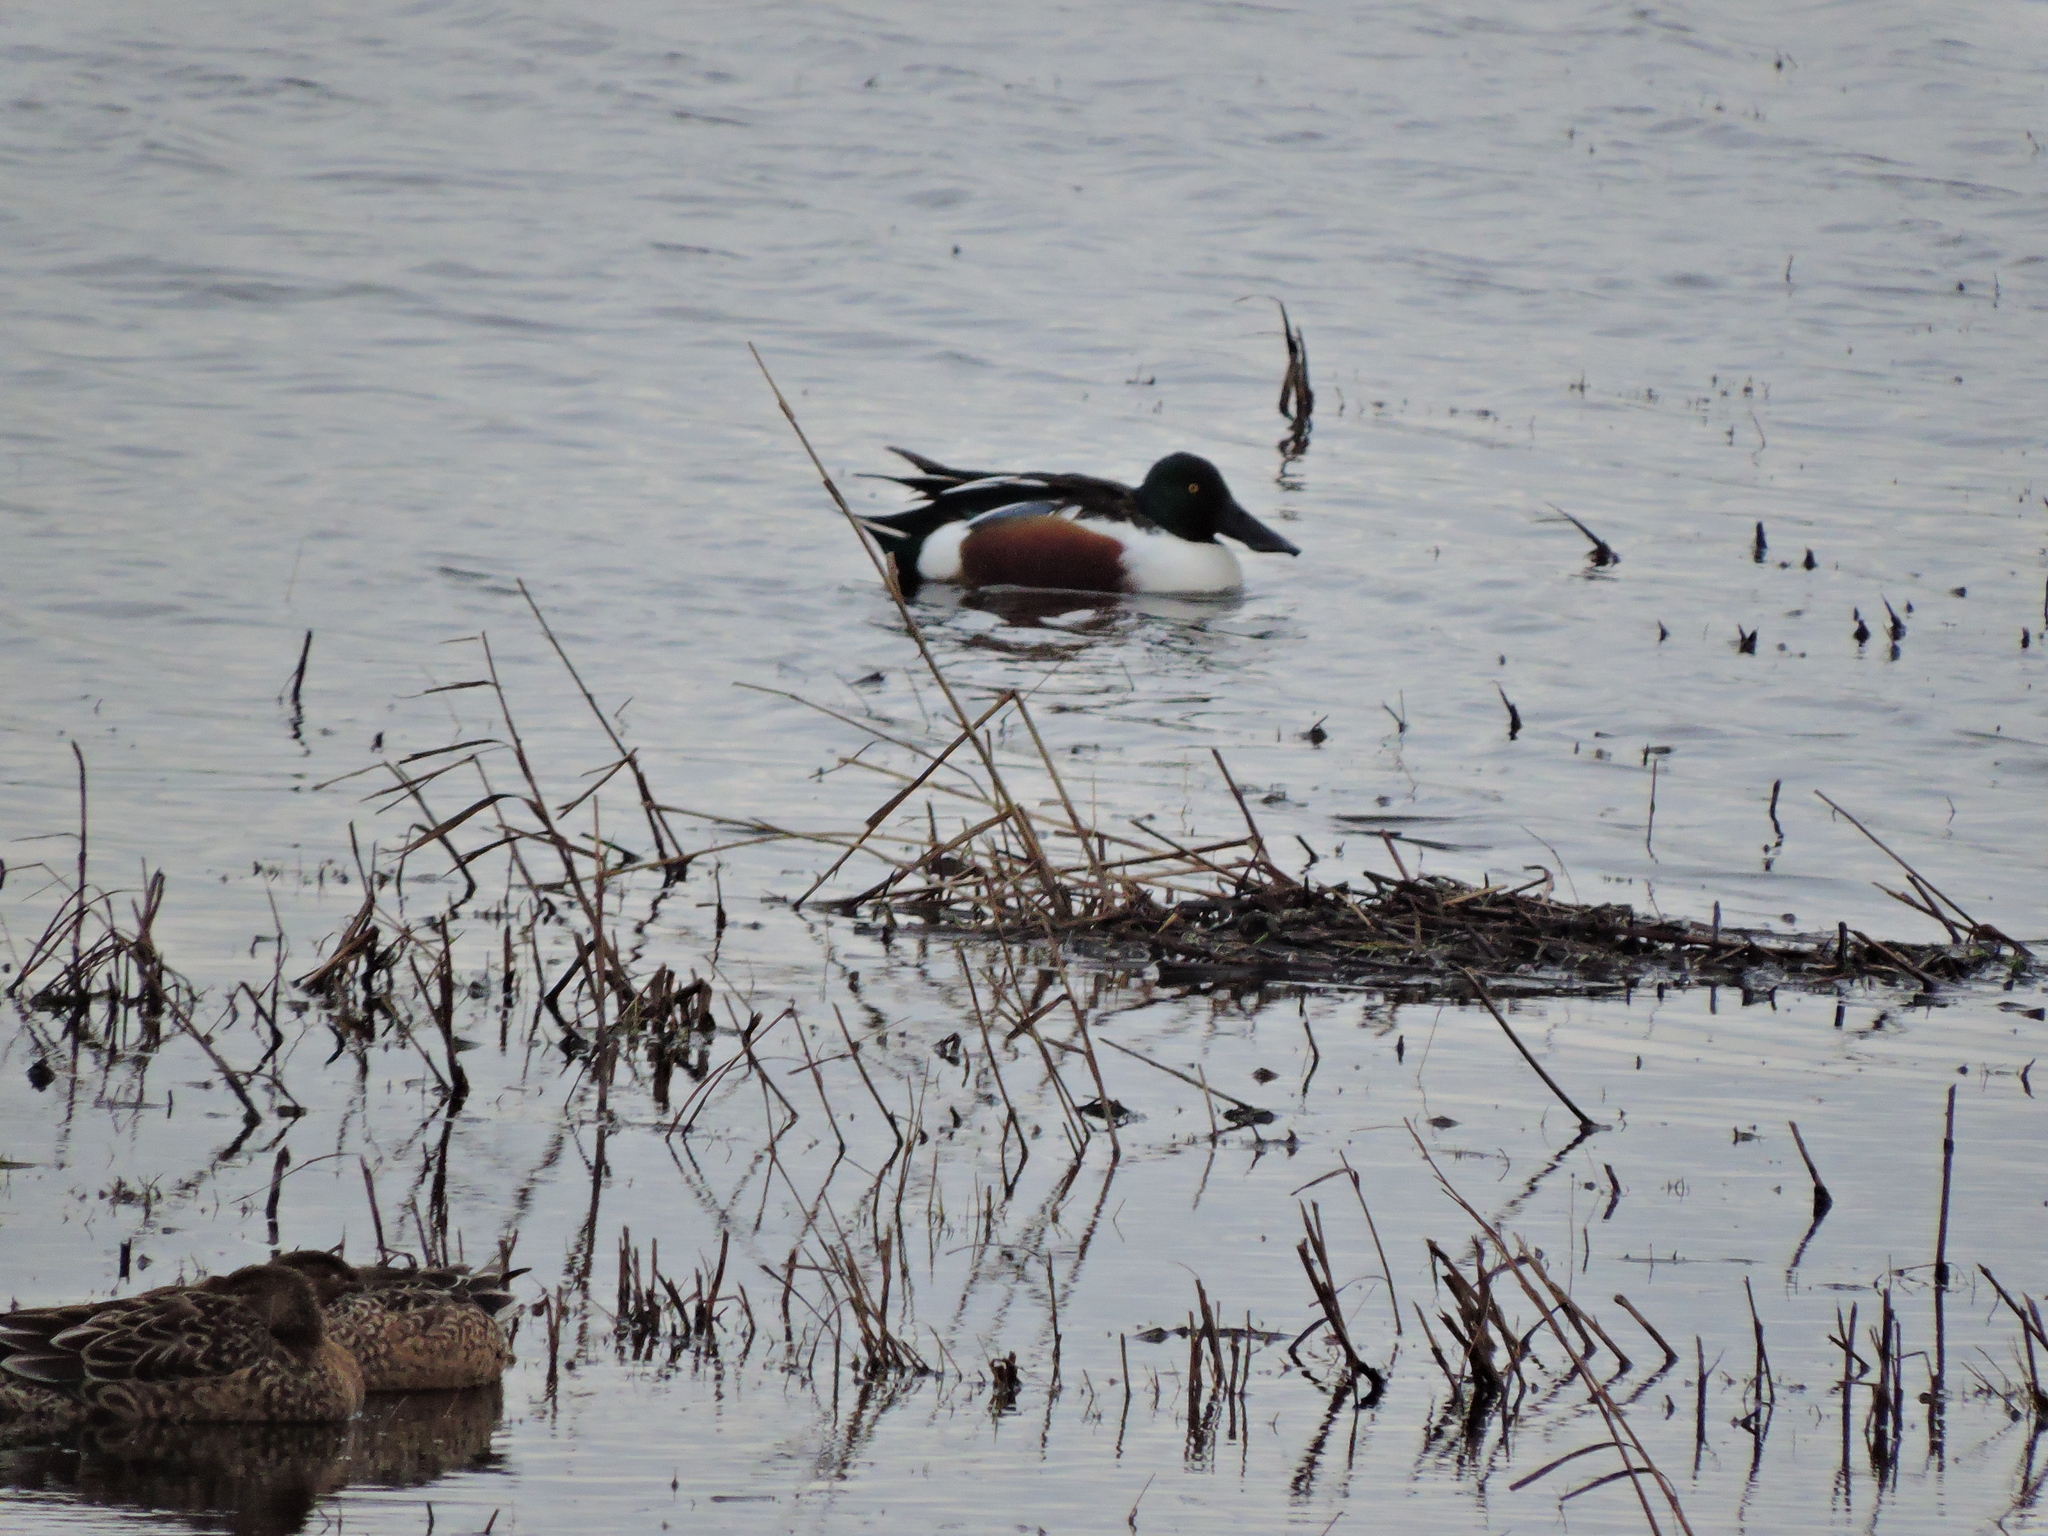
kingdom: Animalia
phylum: Chordata
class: Aves
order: Anseriformes
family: Anatidae
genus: Spatula
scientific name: Spatula clypeata
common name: Northern shoveler
